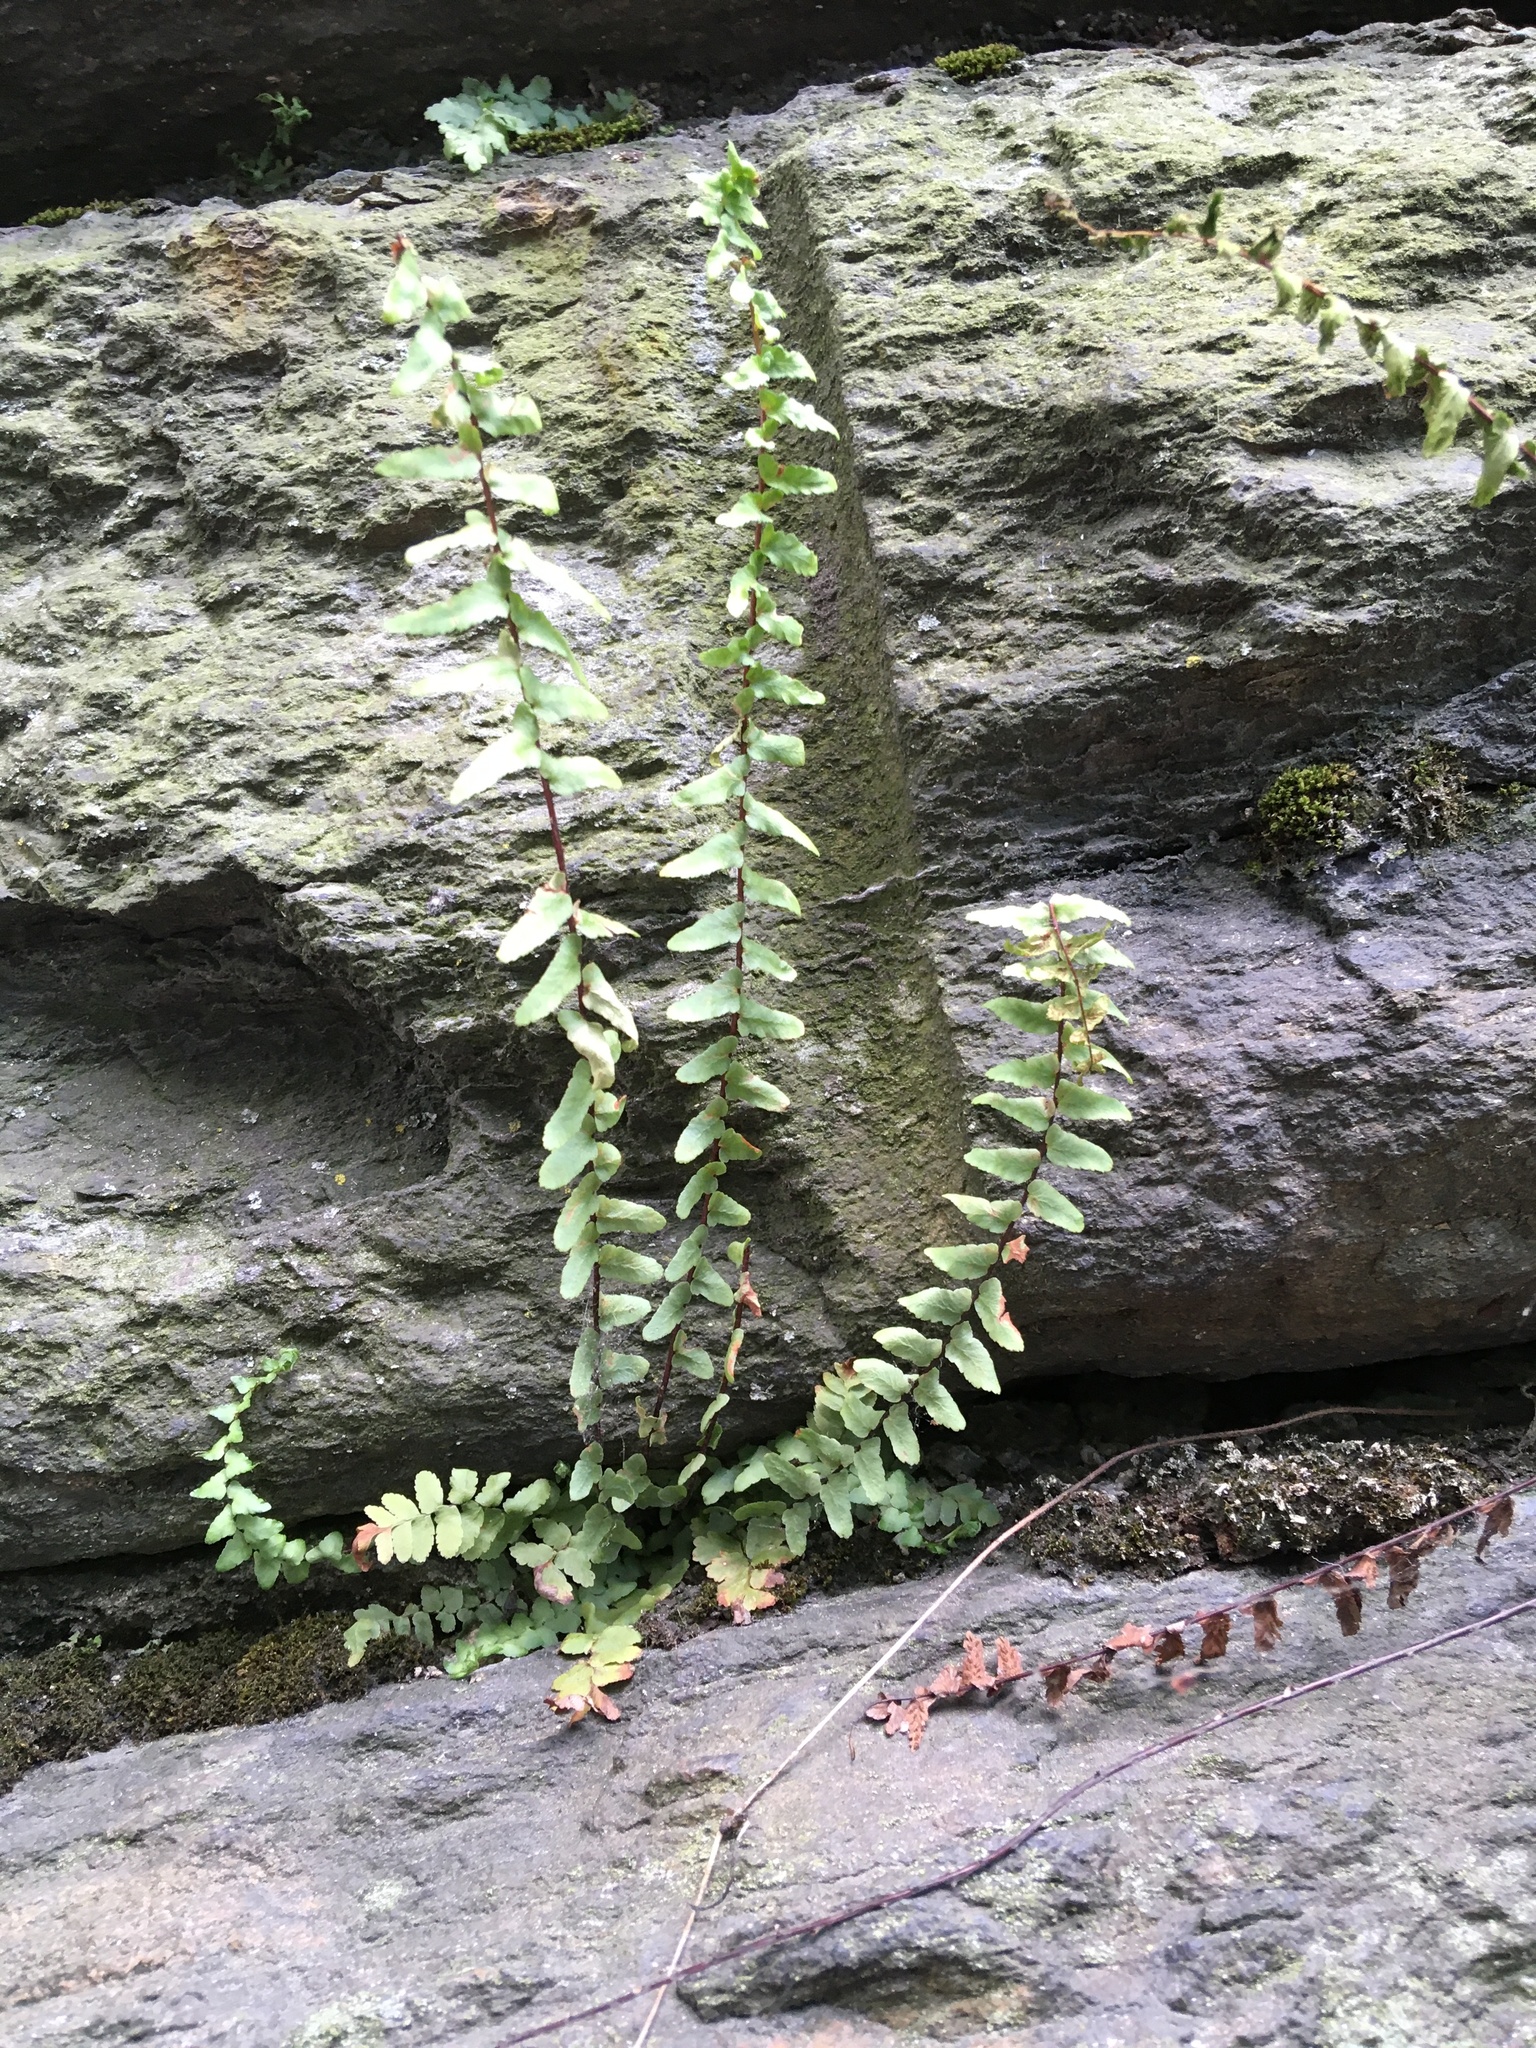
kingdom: Plantae
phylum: Tracheophyta
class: Polypodiopsida
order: Polypodiales
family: Aspleniaceae
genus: Asplenium
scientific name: Asplenium platyneuron
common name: Ebony spleenwort
